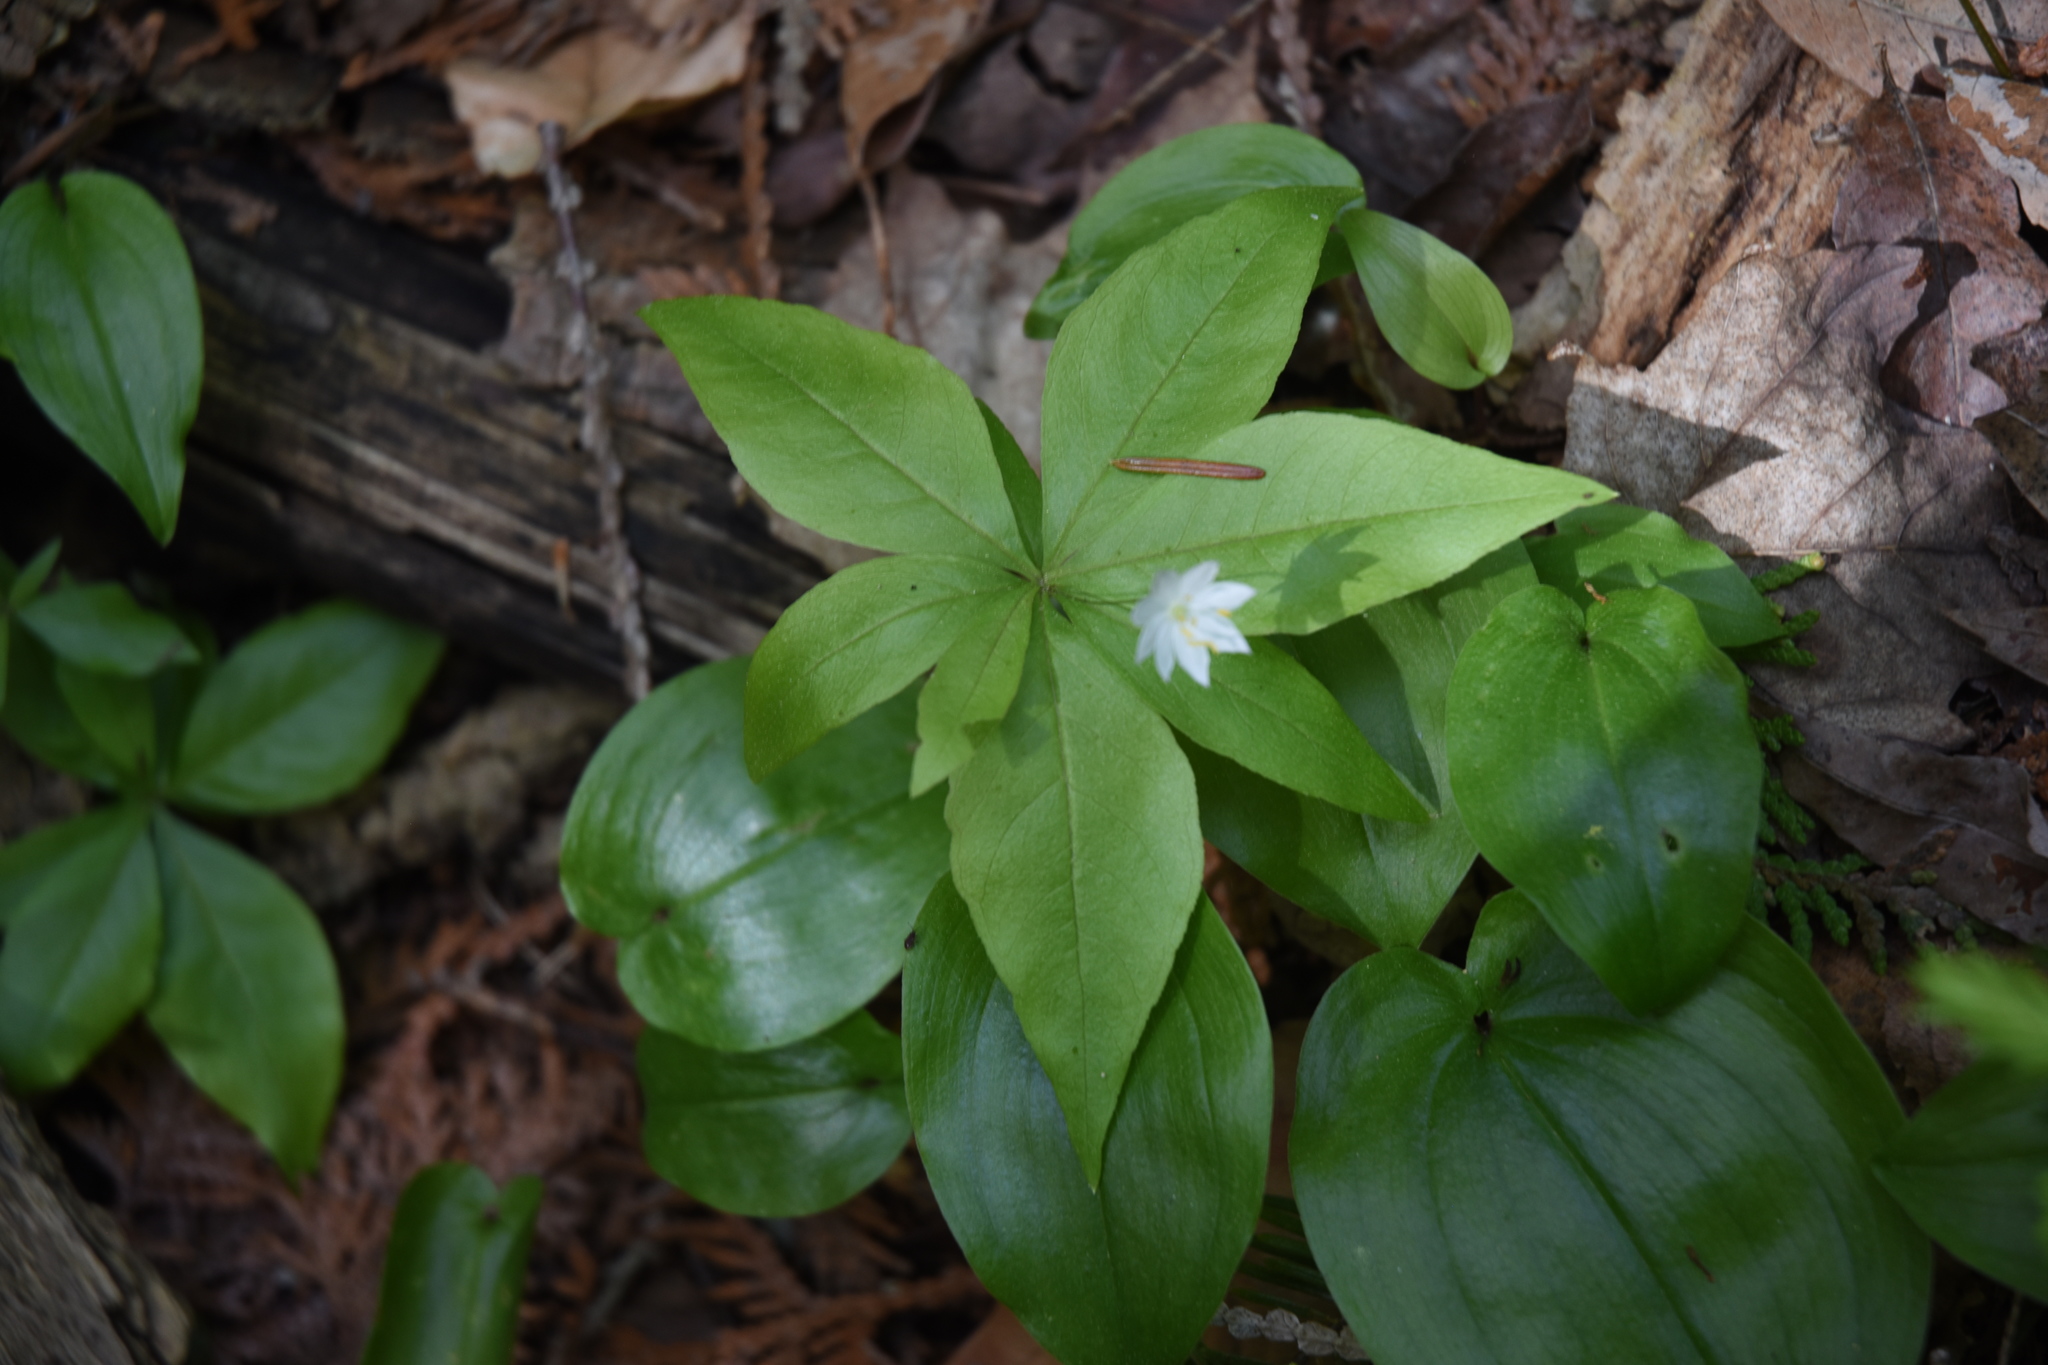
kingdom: Plantae
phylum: Tracheophyta
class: Magnoliopsida
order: Ericales
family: Primulaceae
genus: Lysimachia
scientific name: Lysimachia borealis
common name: American starflower
